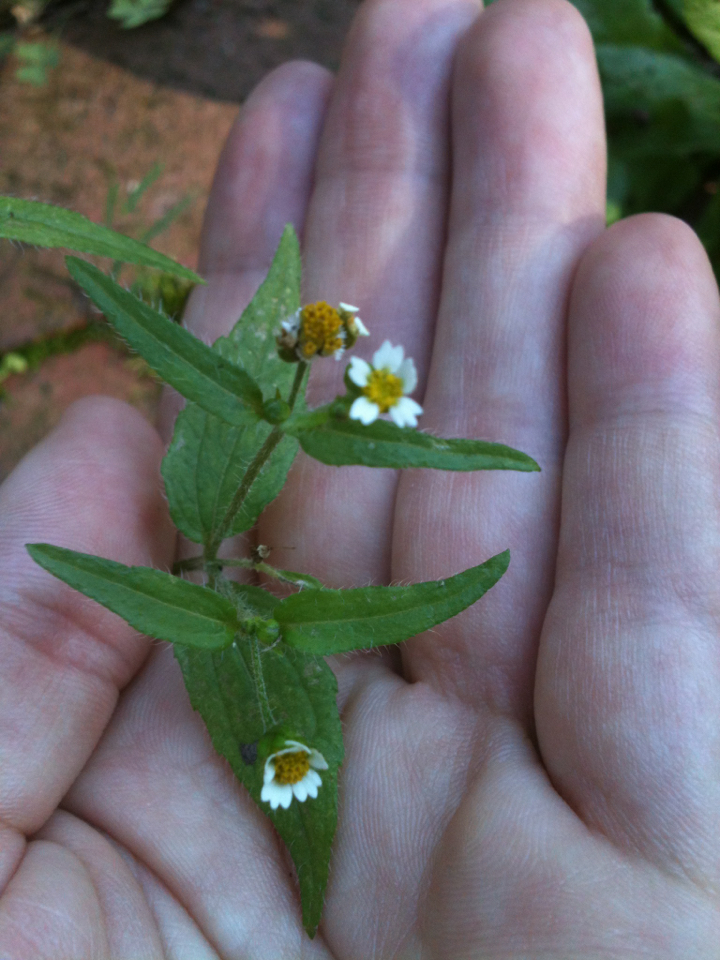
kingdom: Plantae
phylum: Tracheophyta
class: Magnoliopsida
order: Asterales
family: Asteraceae
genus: Galinsoga
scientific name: Galinsoga quadriradiata
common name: Shaggy soldier
